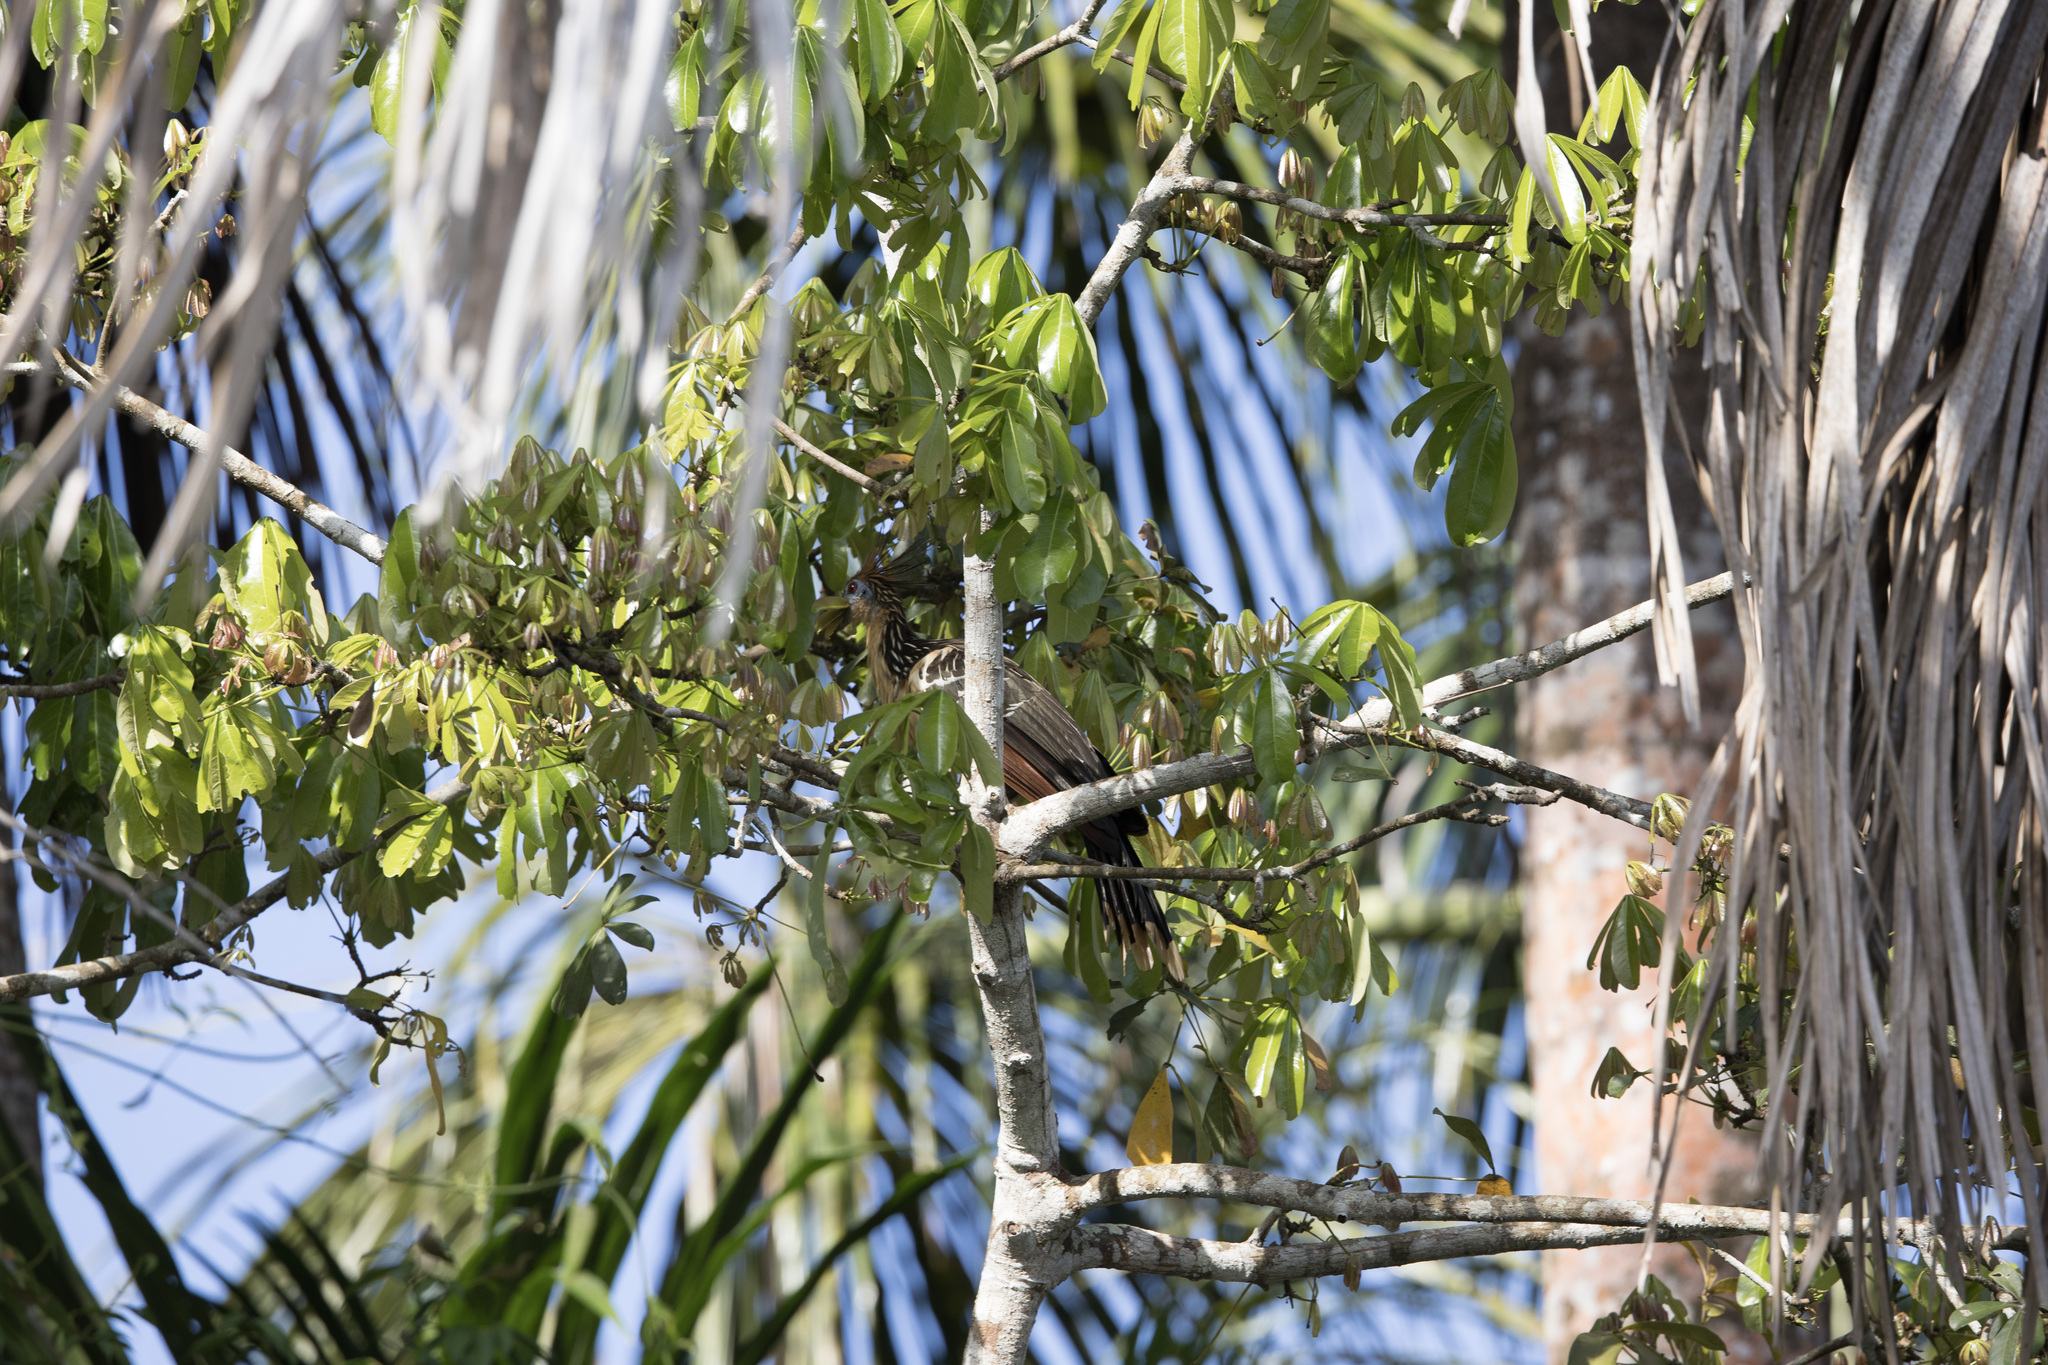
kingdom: Animalia
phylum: Chordata
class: Aves
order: Opisthocomiformes
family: Opisthocomidae
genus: Opisthocomus
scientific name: Opisthocomus hoazin
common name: Hoatzin
